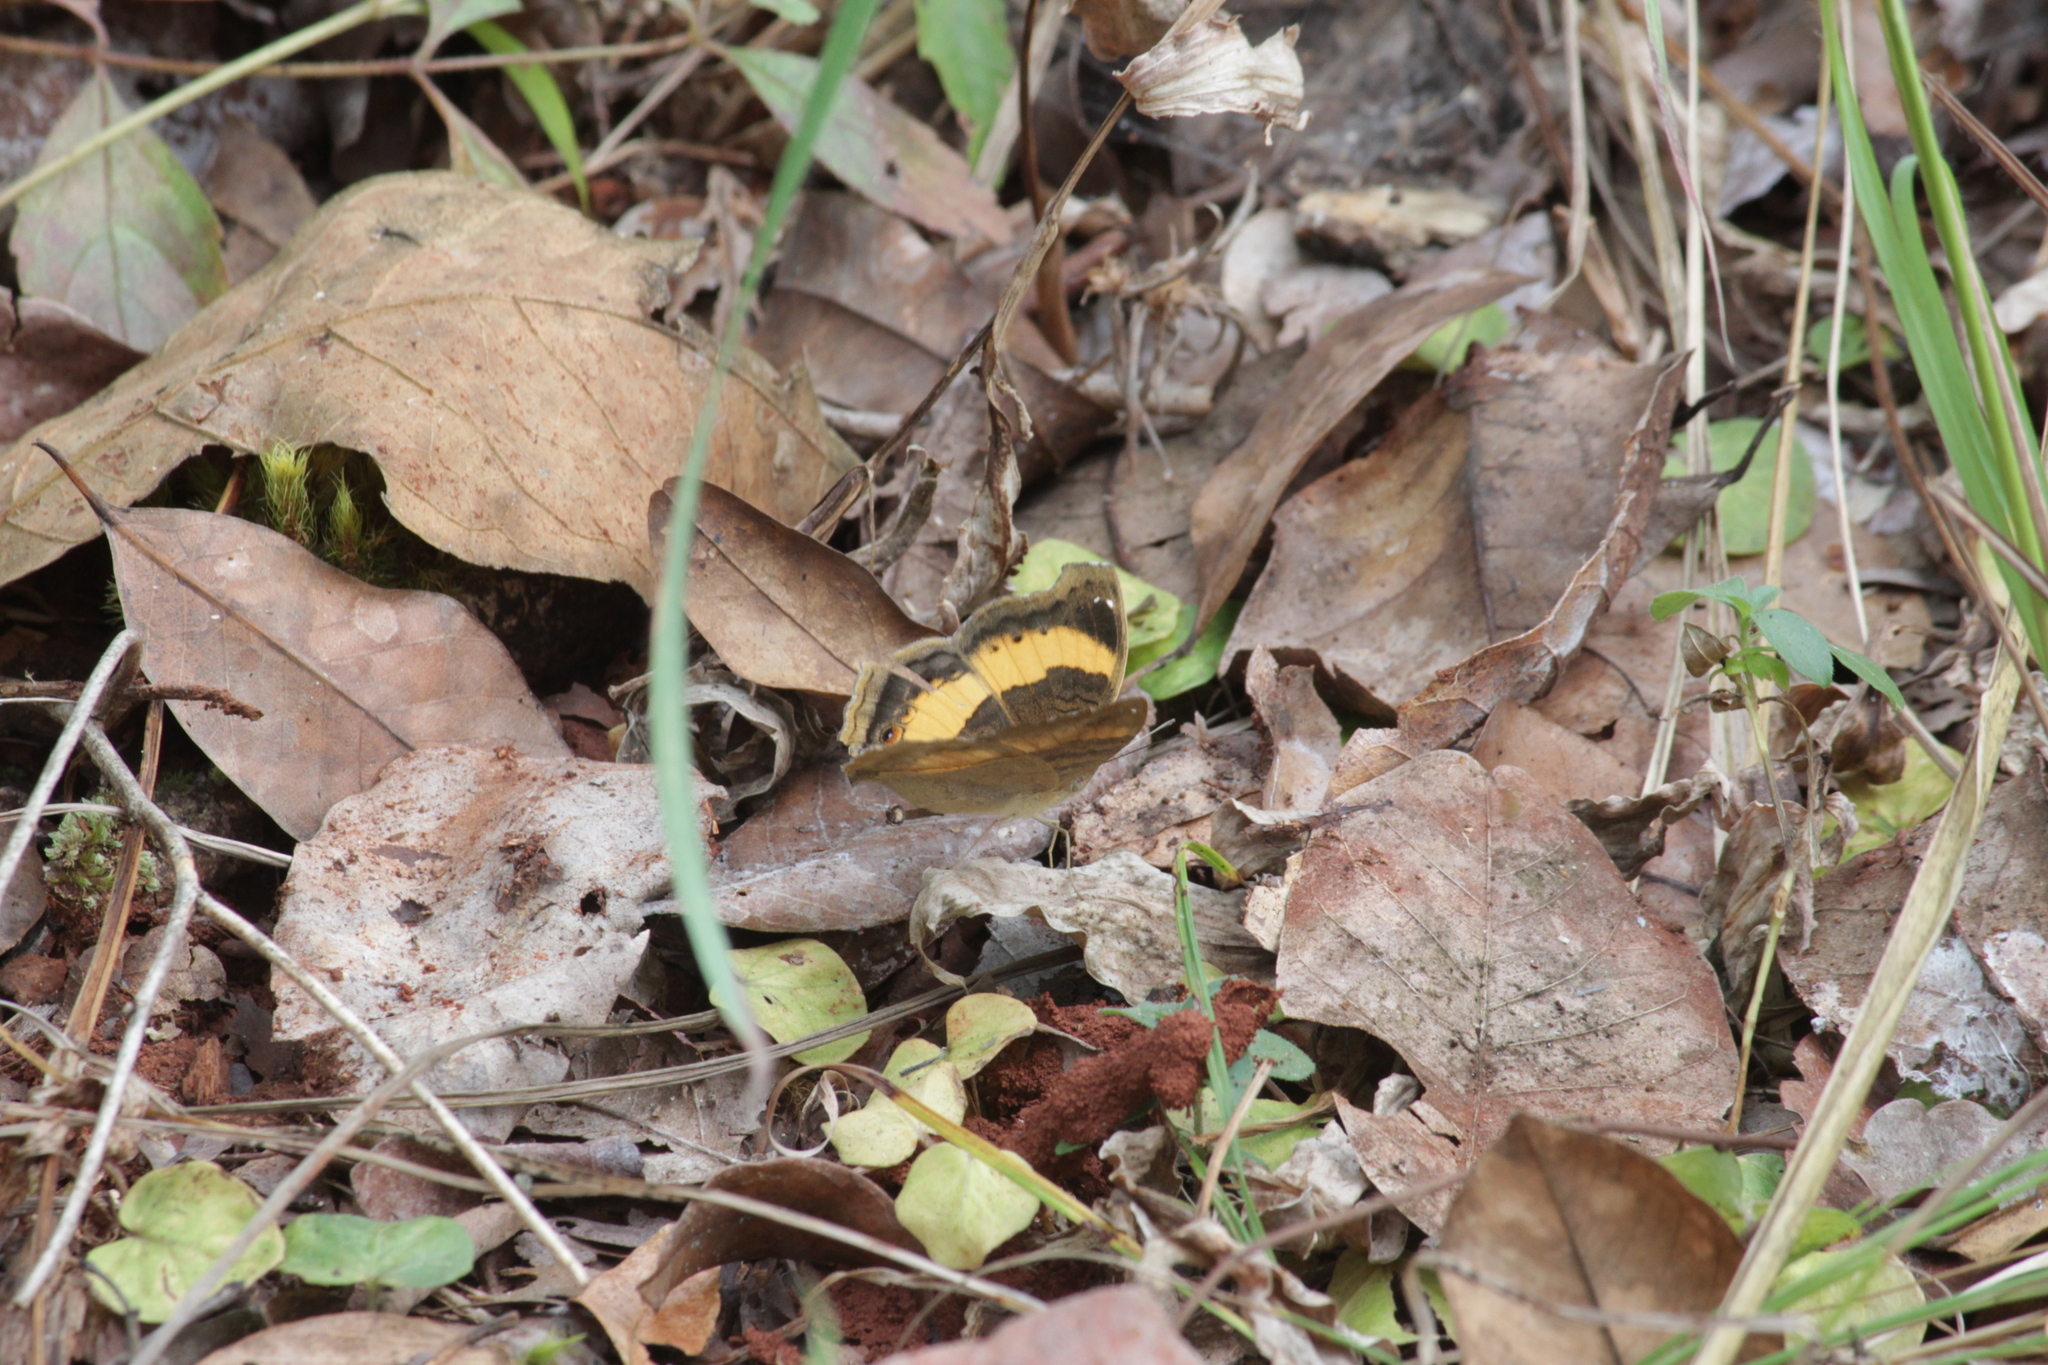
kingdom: Animalia
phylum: Arthropoda
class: Insecta
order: Lepidoptera
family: Nymphalidae
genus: Junonia
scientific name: Junonia terea
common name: Soldier pansy
